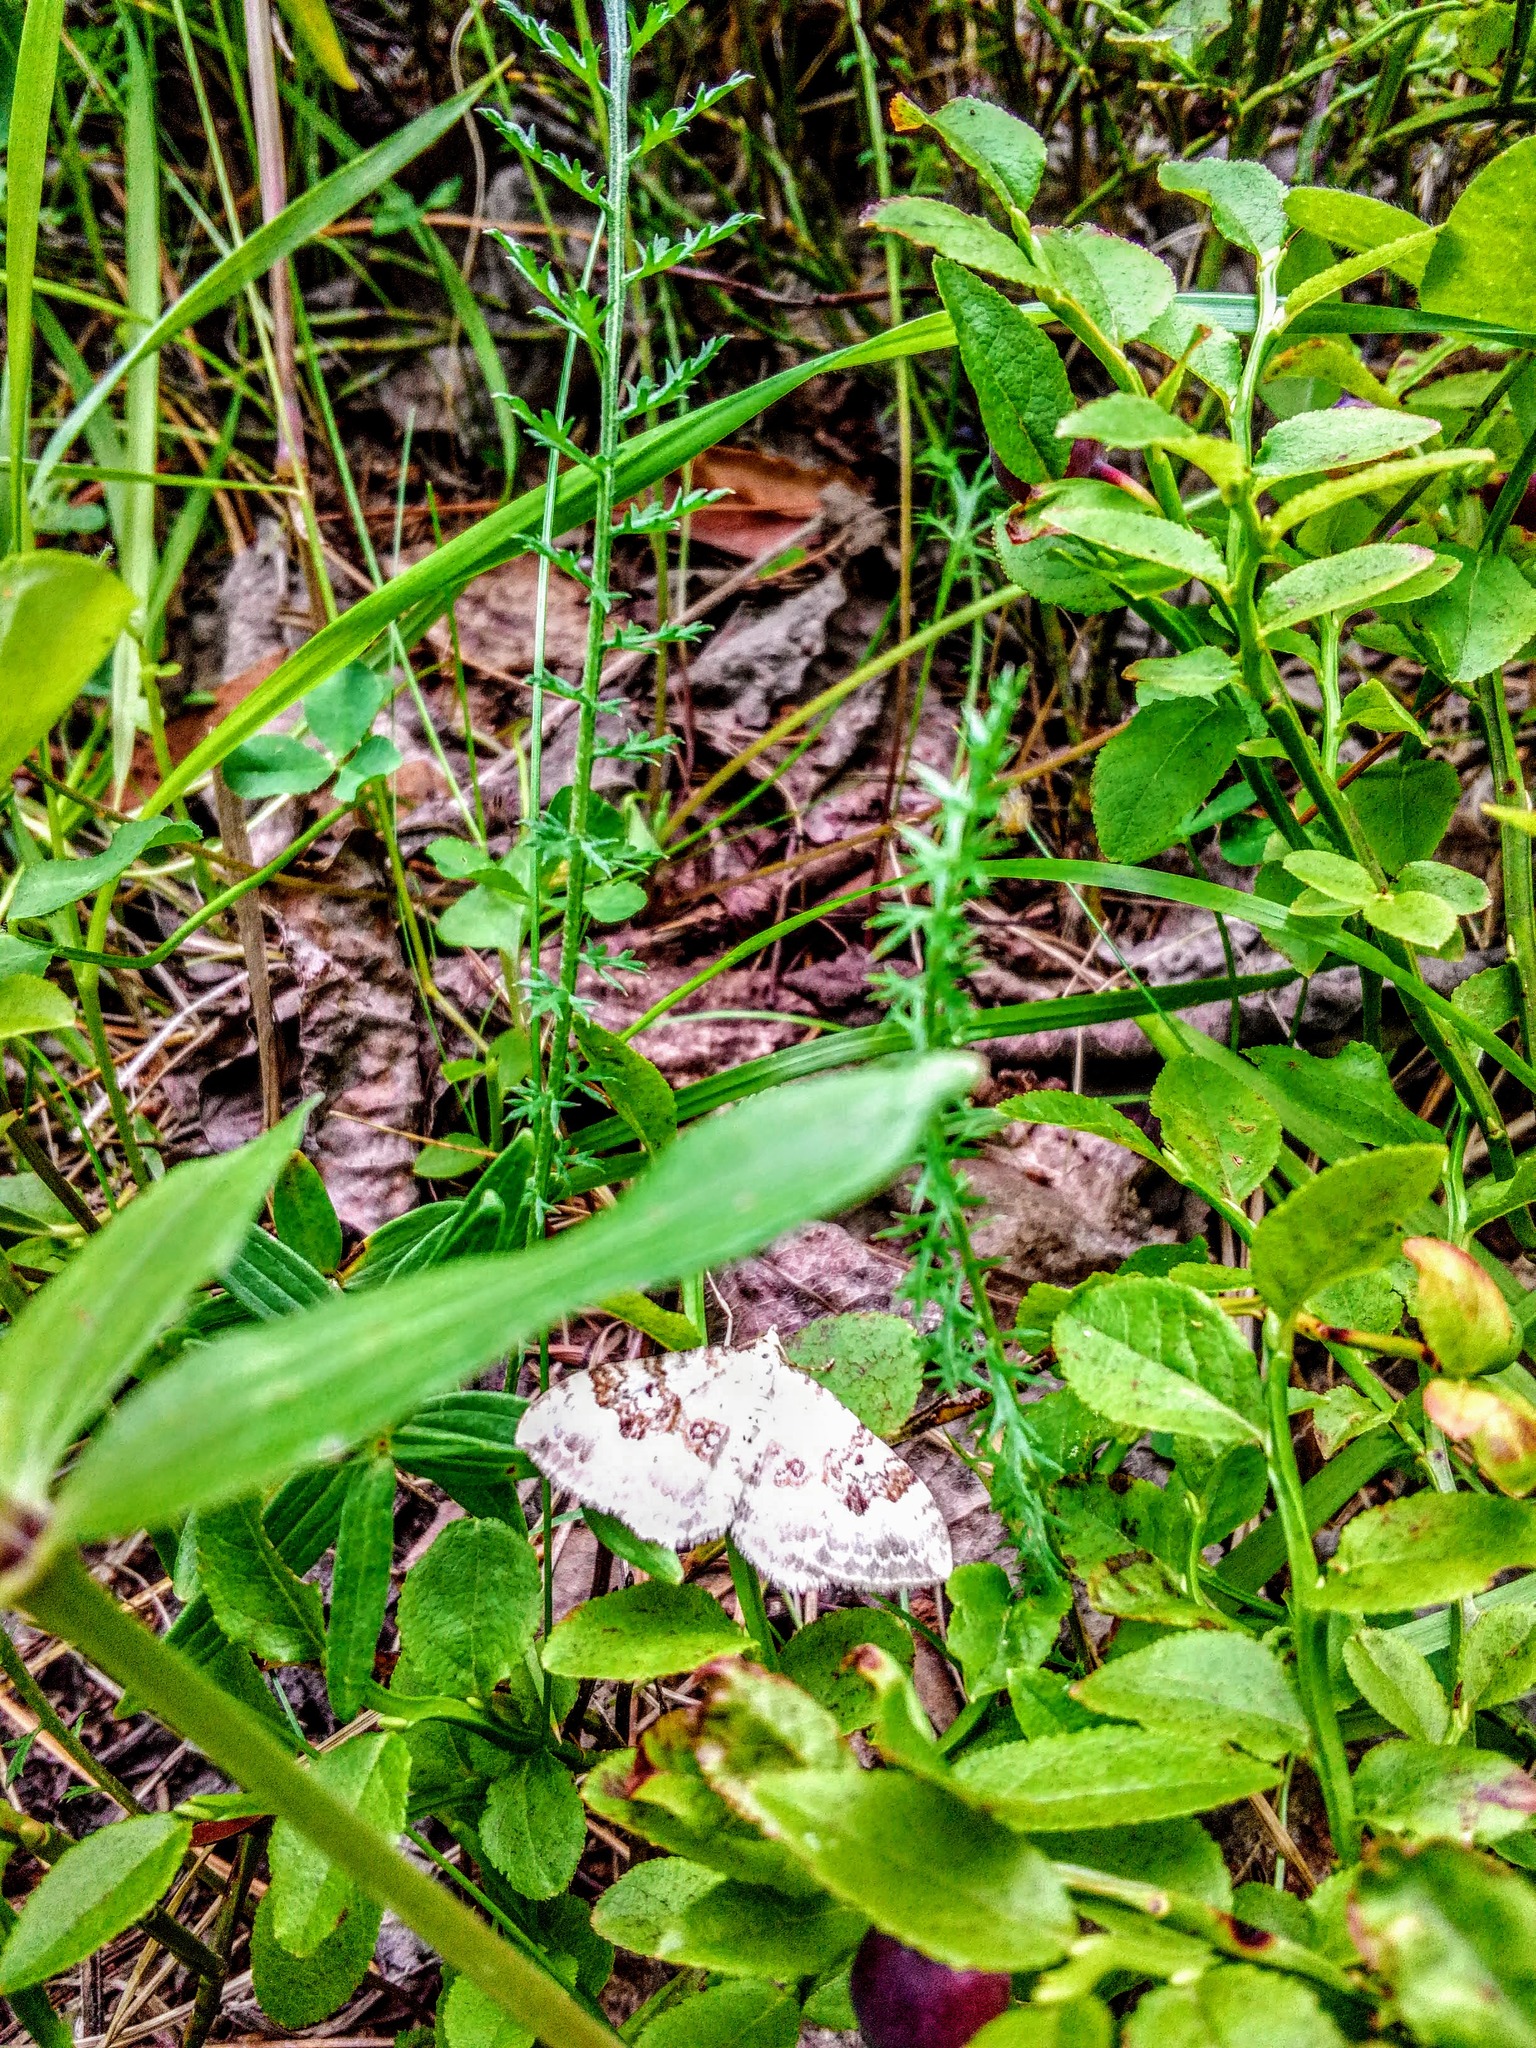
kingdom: Animalia
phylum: Arthropoda
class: Insecta
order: Lepidoptera
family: Geometridae
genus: Xanthorhoe
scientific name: Xanthorhoe montanata
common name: Silver-ground carpet
